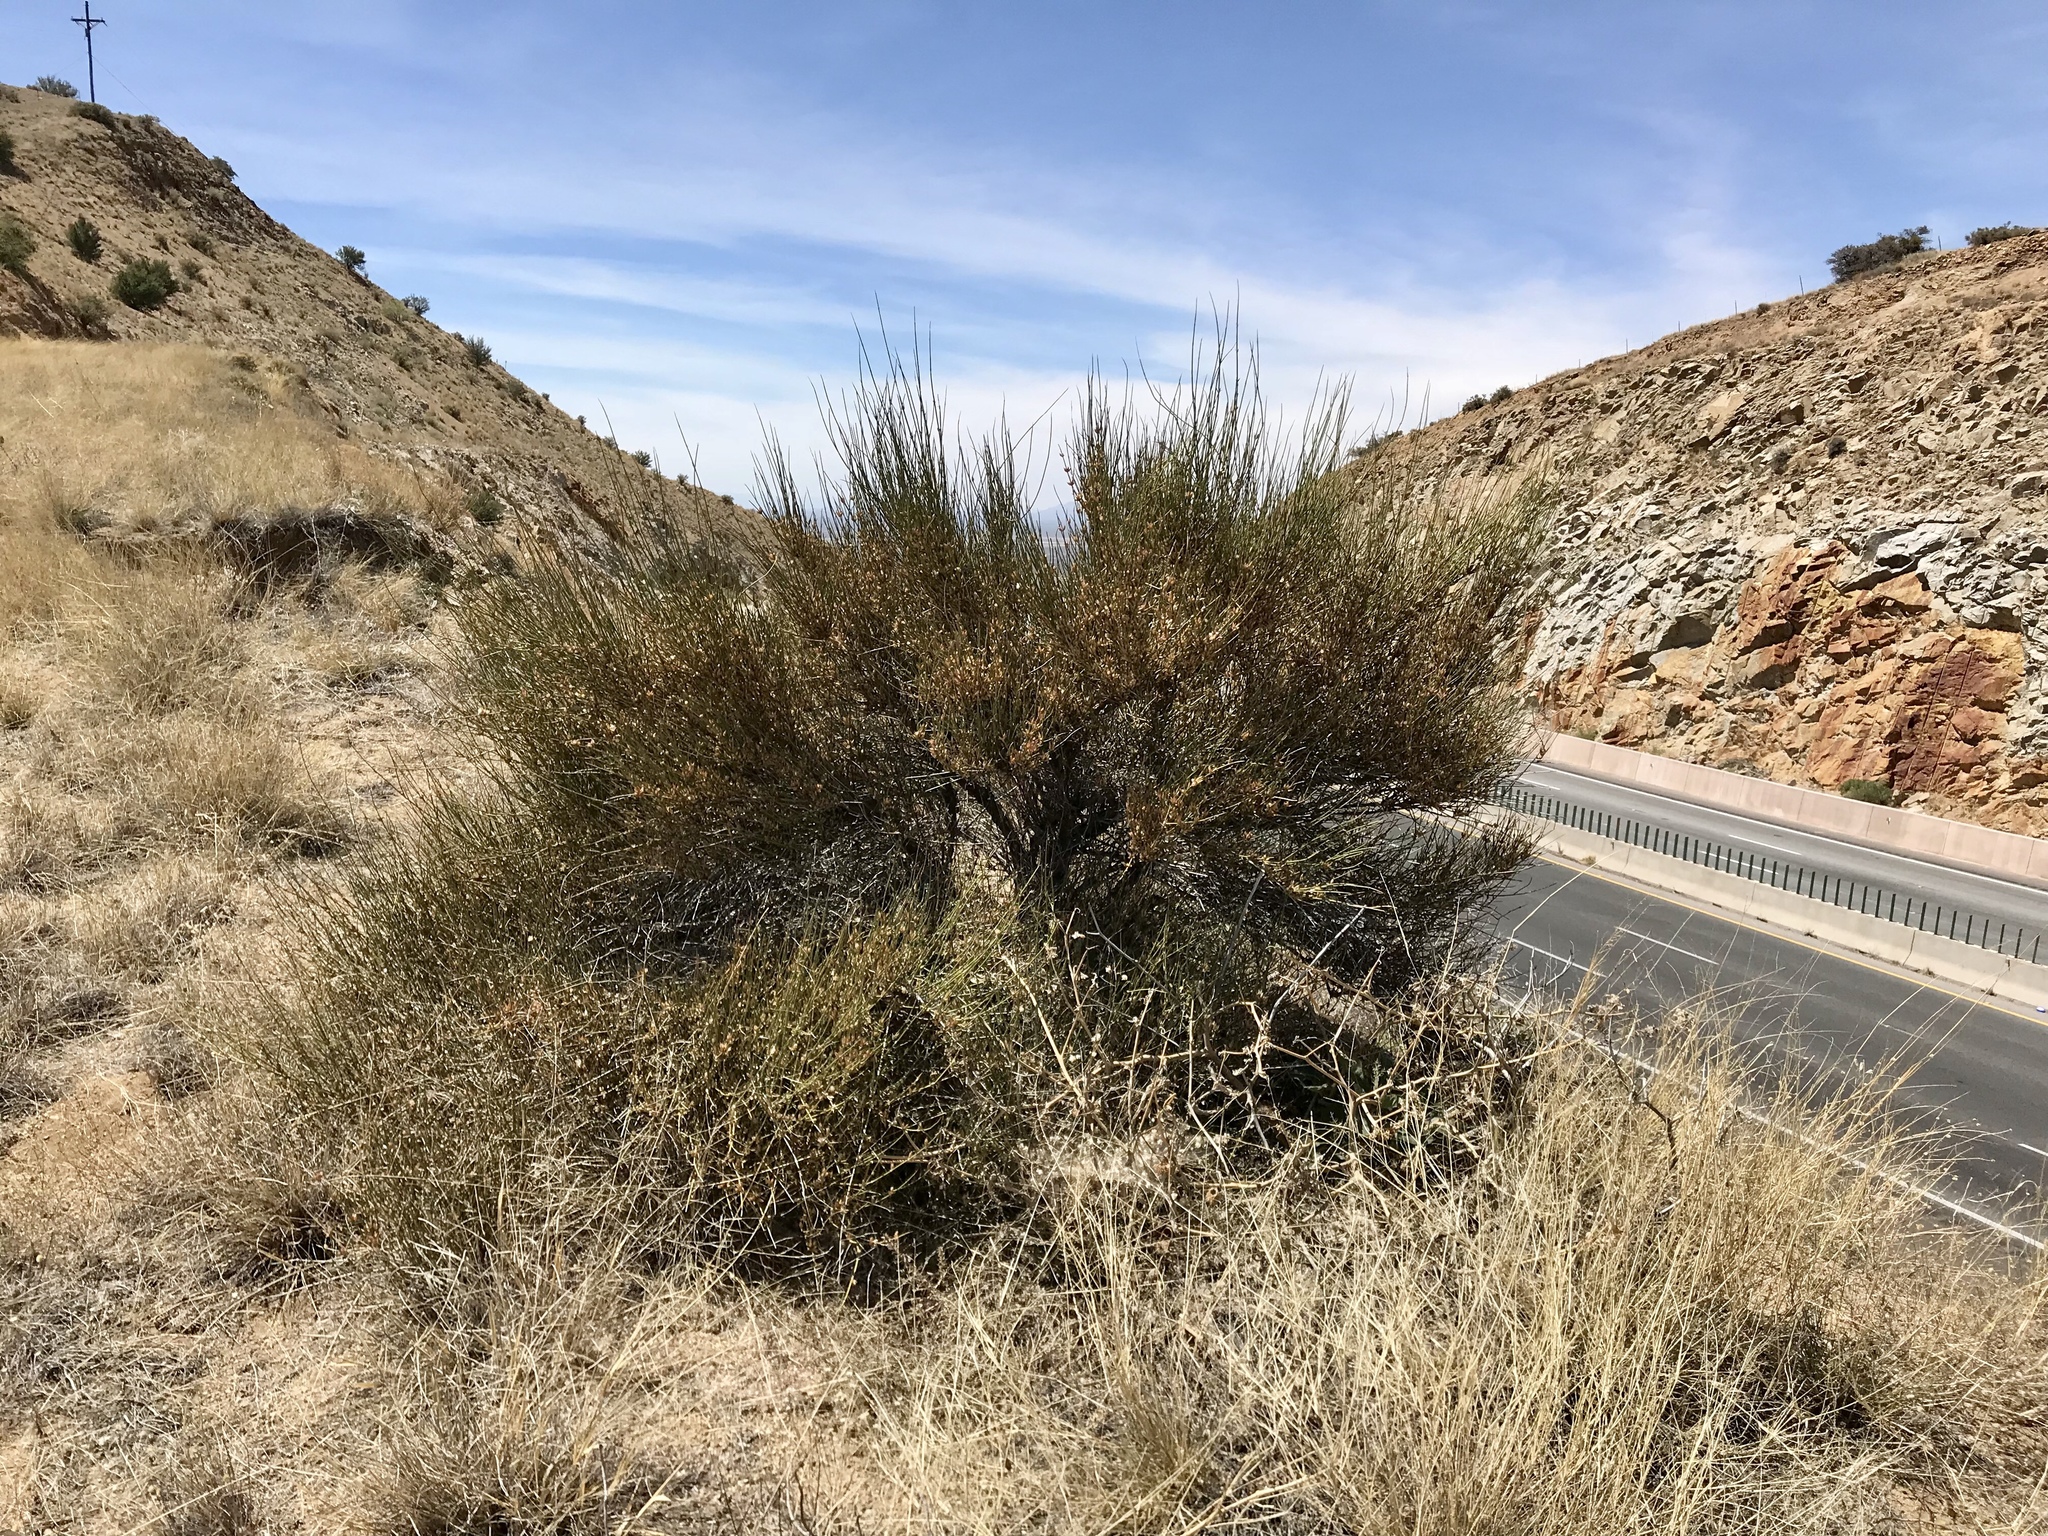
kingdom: Plantae
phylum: Tracheophyta
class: Gnetopsida
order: Ephedrales
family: Ephedraceae
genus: Ephedra
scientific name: Ephedra trifurca
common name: Mexican-tea
